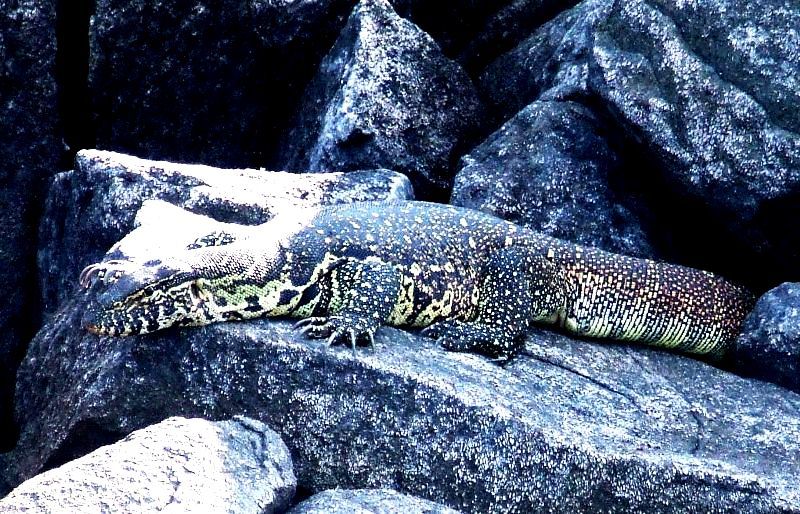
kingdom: Animalia
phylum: Chordata
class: Squamata
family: Varanidae
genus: Varanus
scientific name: Varanus niloticus
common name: Nile monitor
